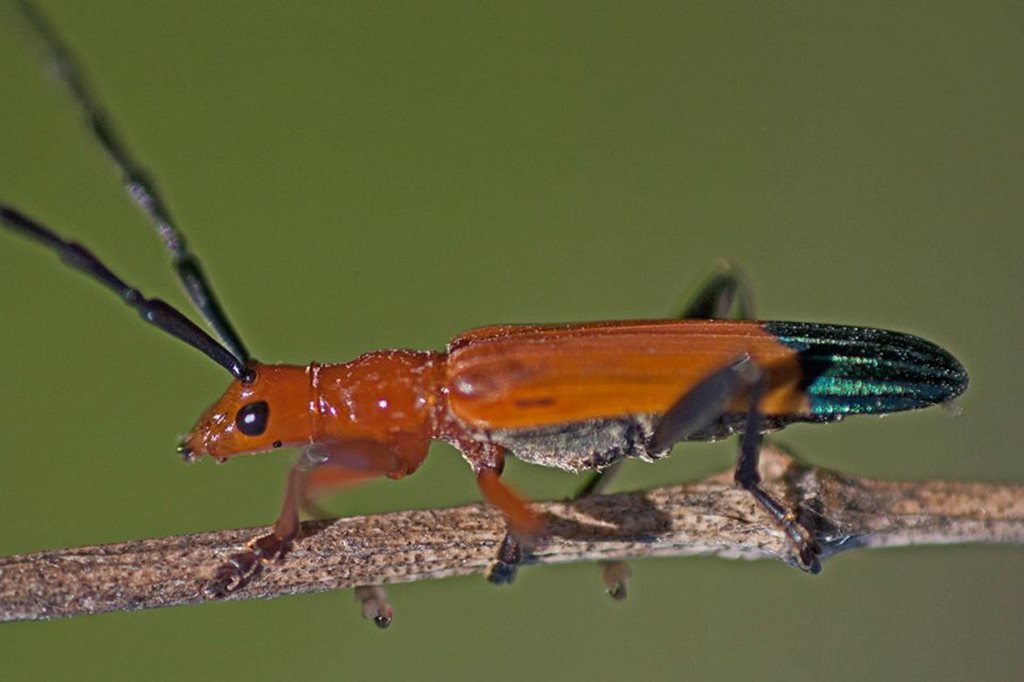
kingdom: Animalia
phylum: Arthropoda
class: Insecta
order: Coleoptera
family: Cerambycidae
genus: Stenoderus
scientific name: Stenoderus ostricilla
